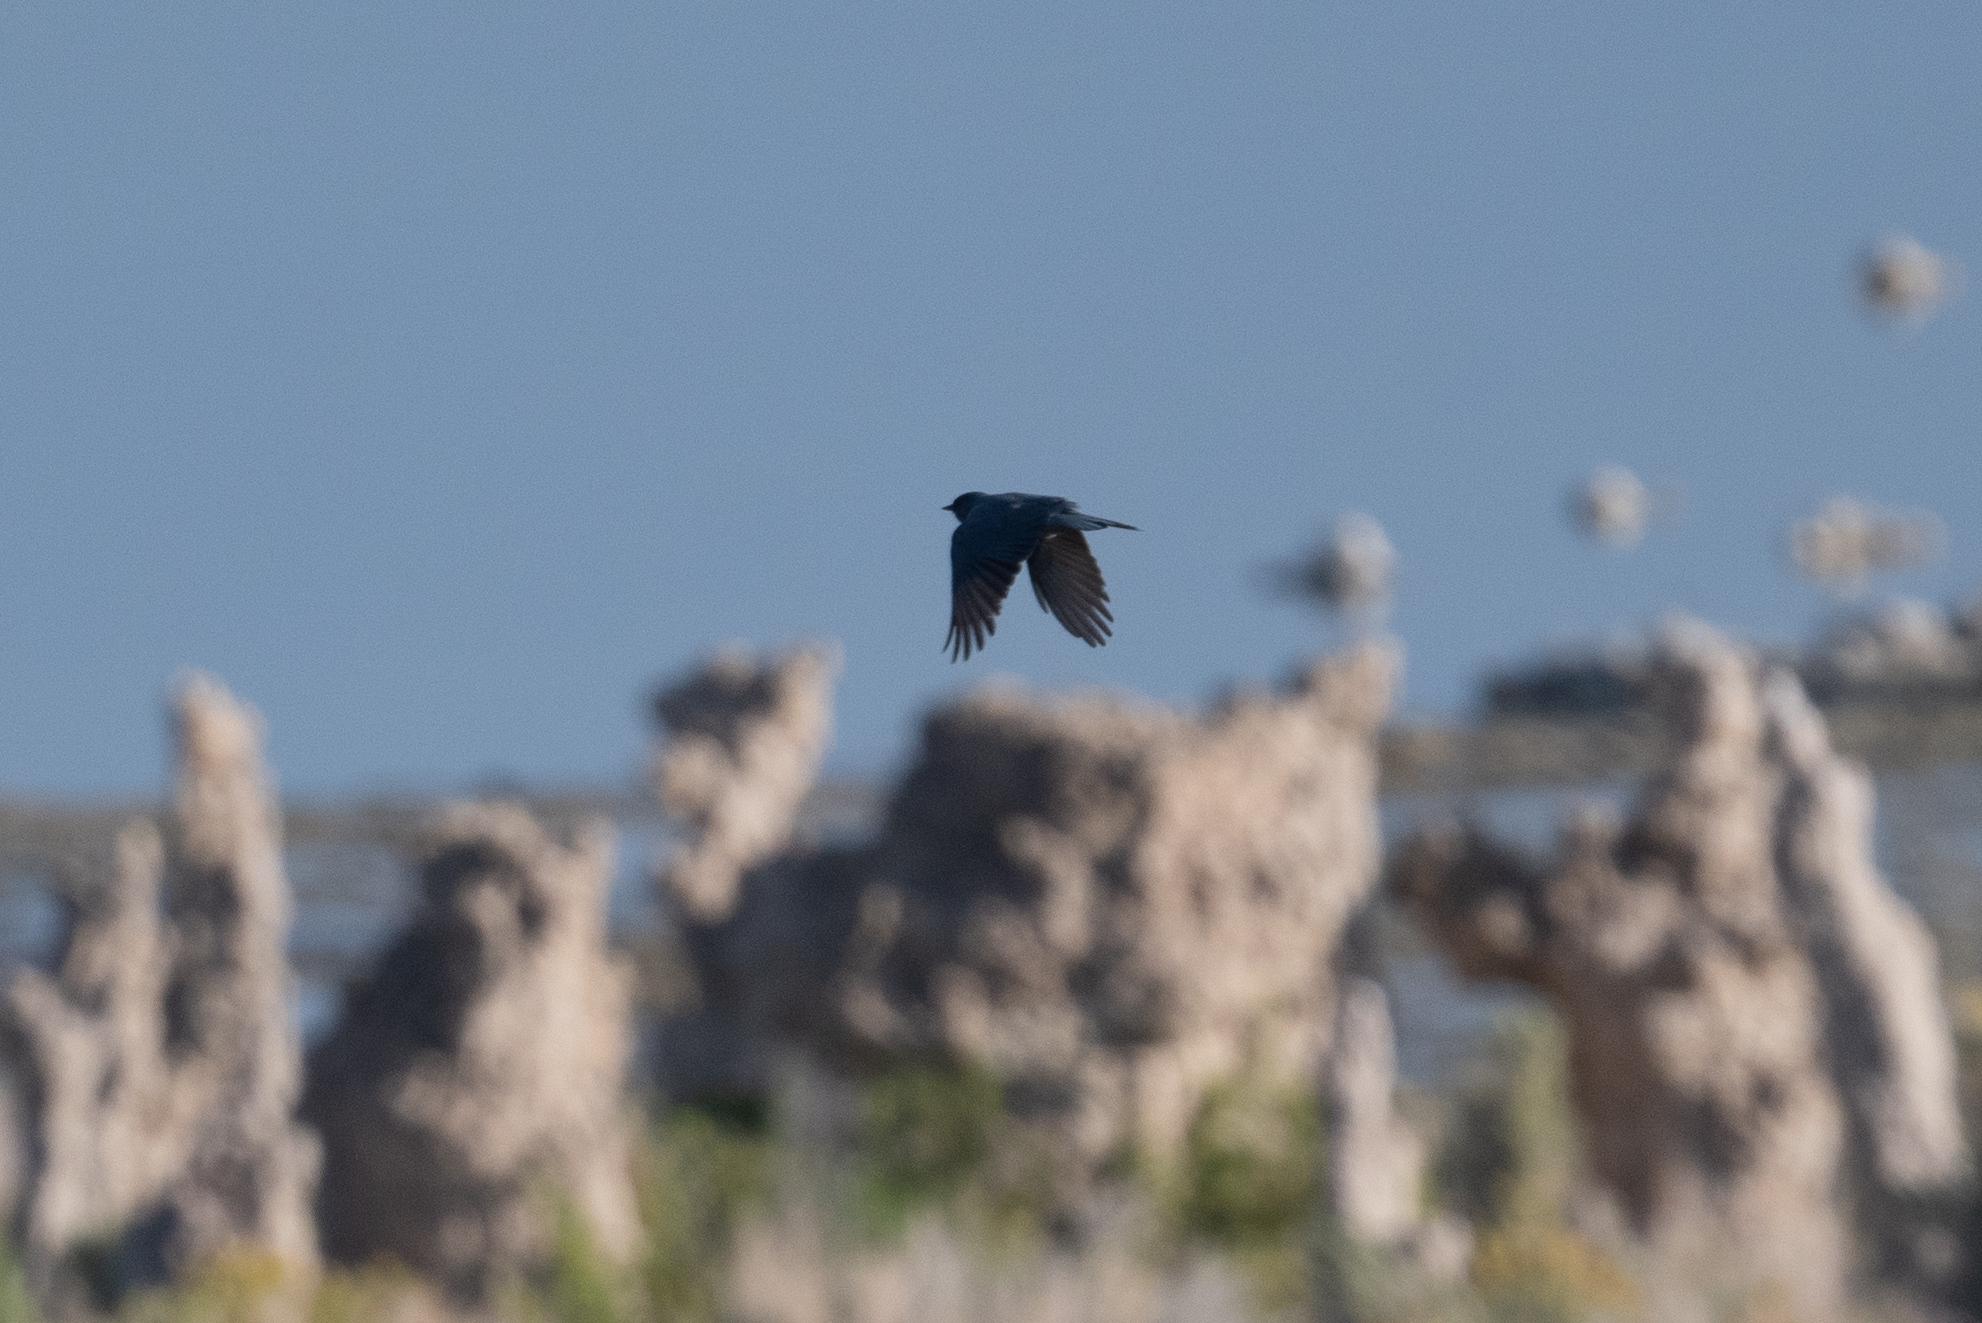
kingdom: Animalia
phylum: Chordata
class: Aves
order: Passeriformes
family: Corvidae
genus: Gymnorhinus
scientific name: Gymnorhinus cyanocephalus
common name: Pinyon jay
